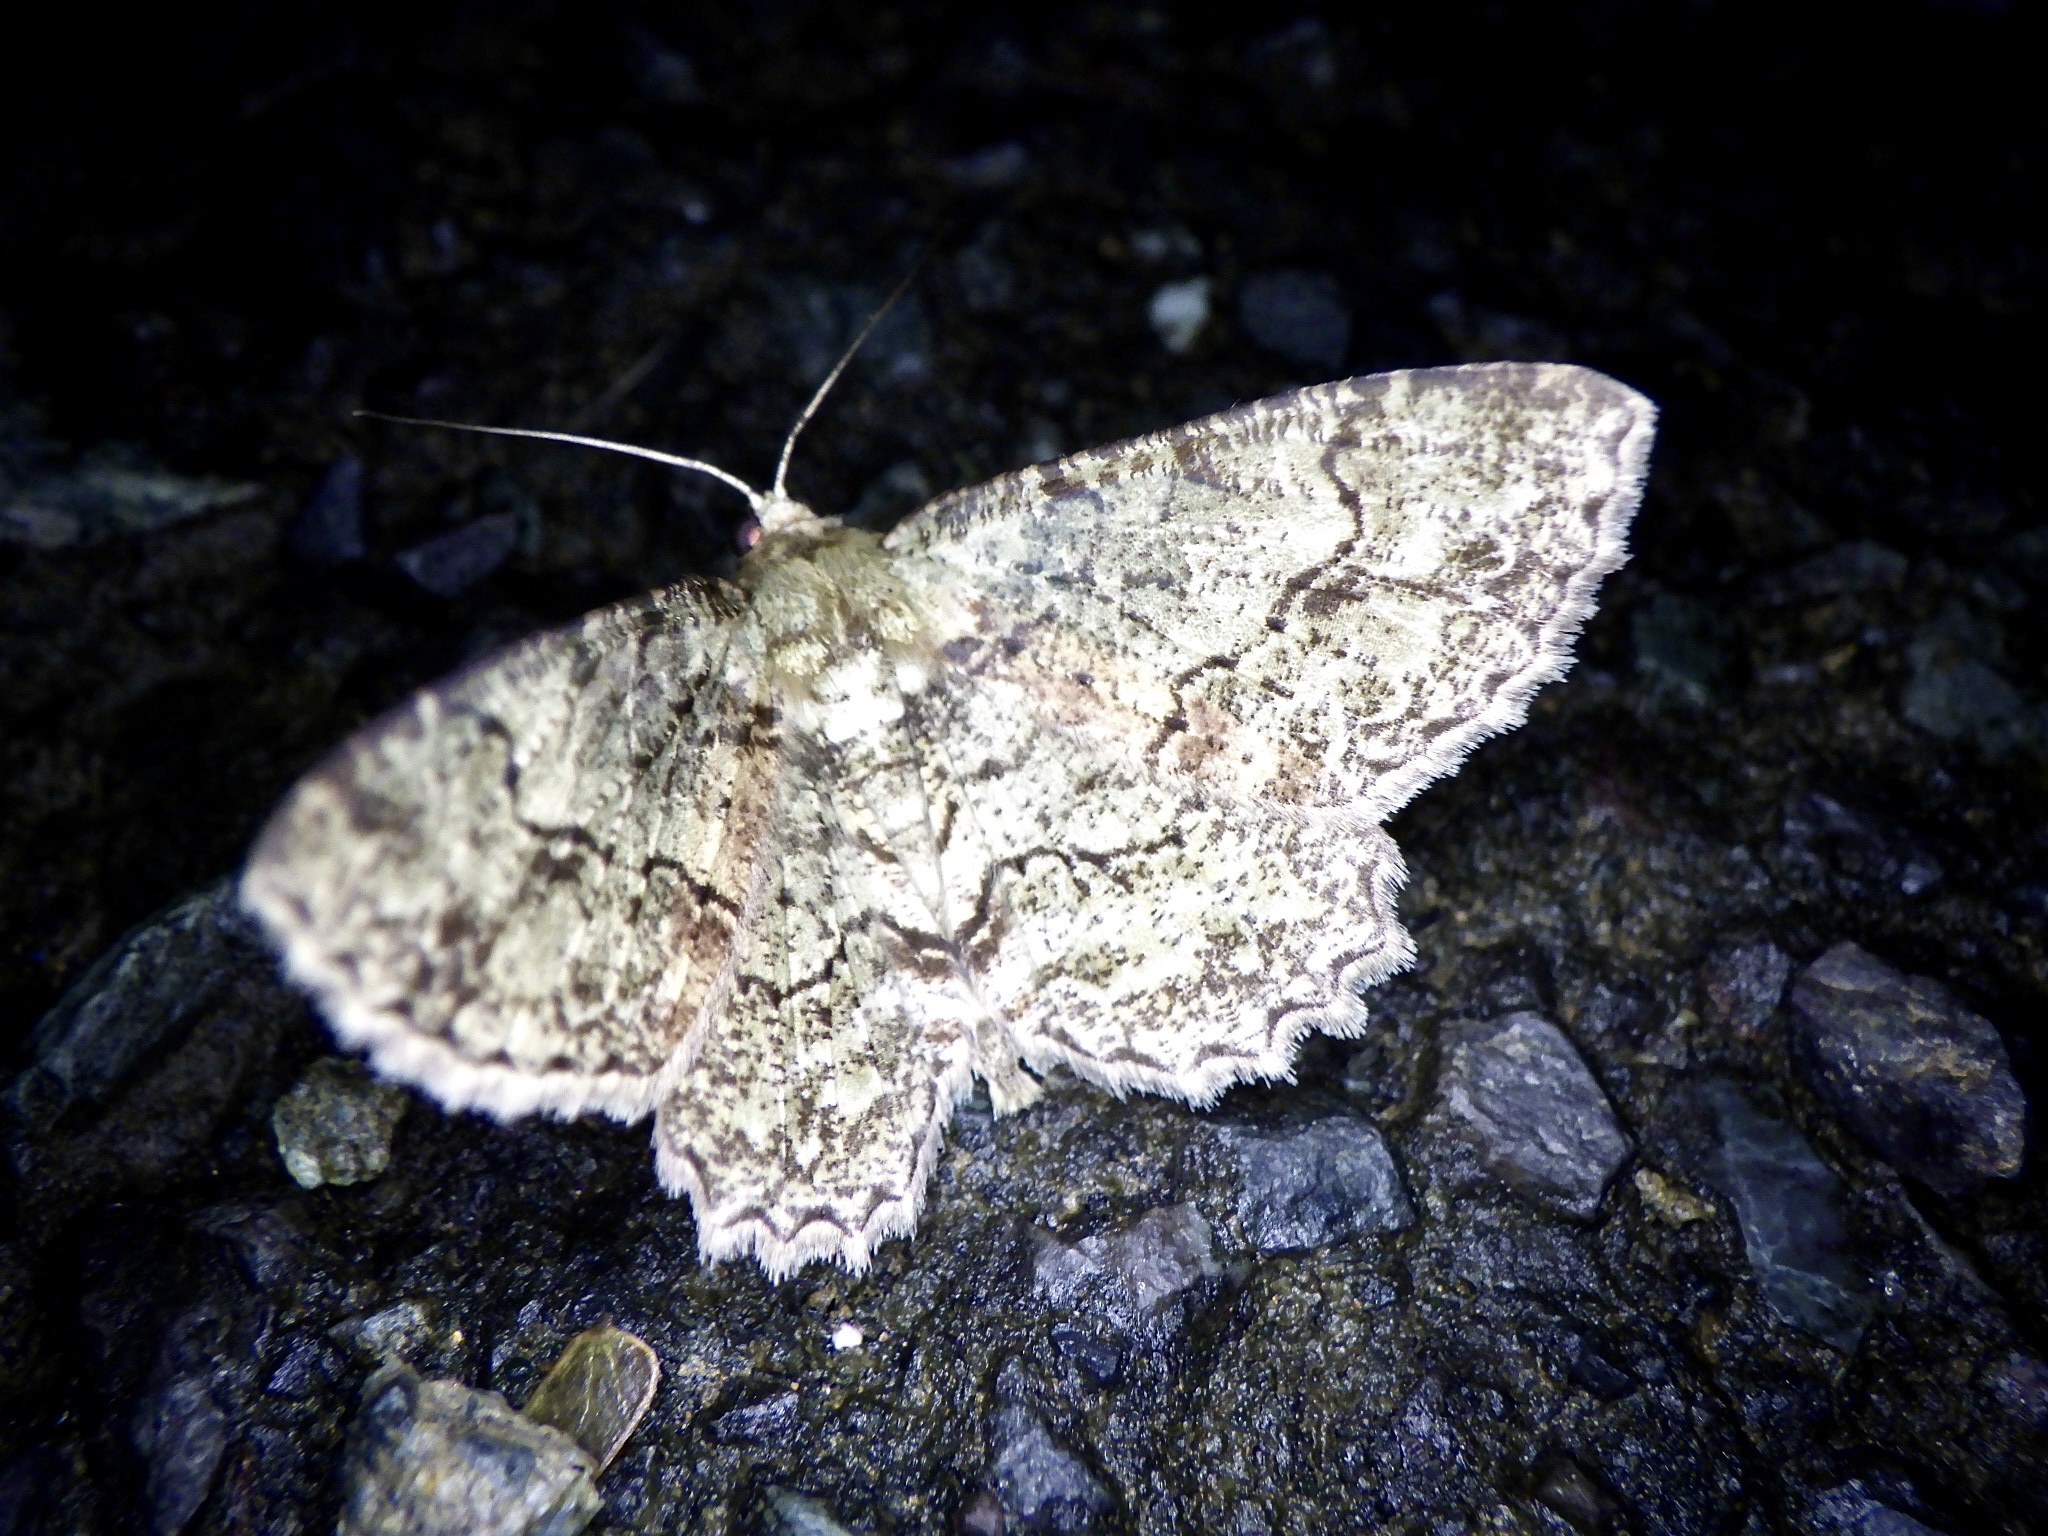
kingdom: Animalia
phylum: Arthropoda
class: Insecta
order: Lepidoptera
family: Geometridae
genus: Paradarisa
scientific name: Paradarisa chloauges
